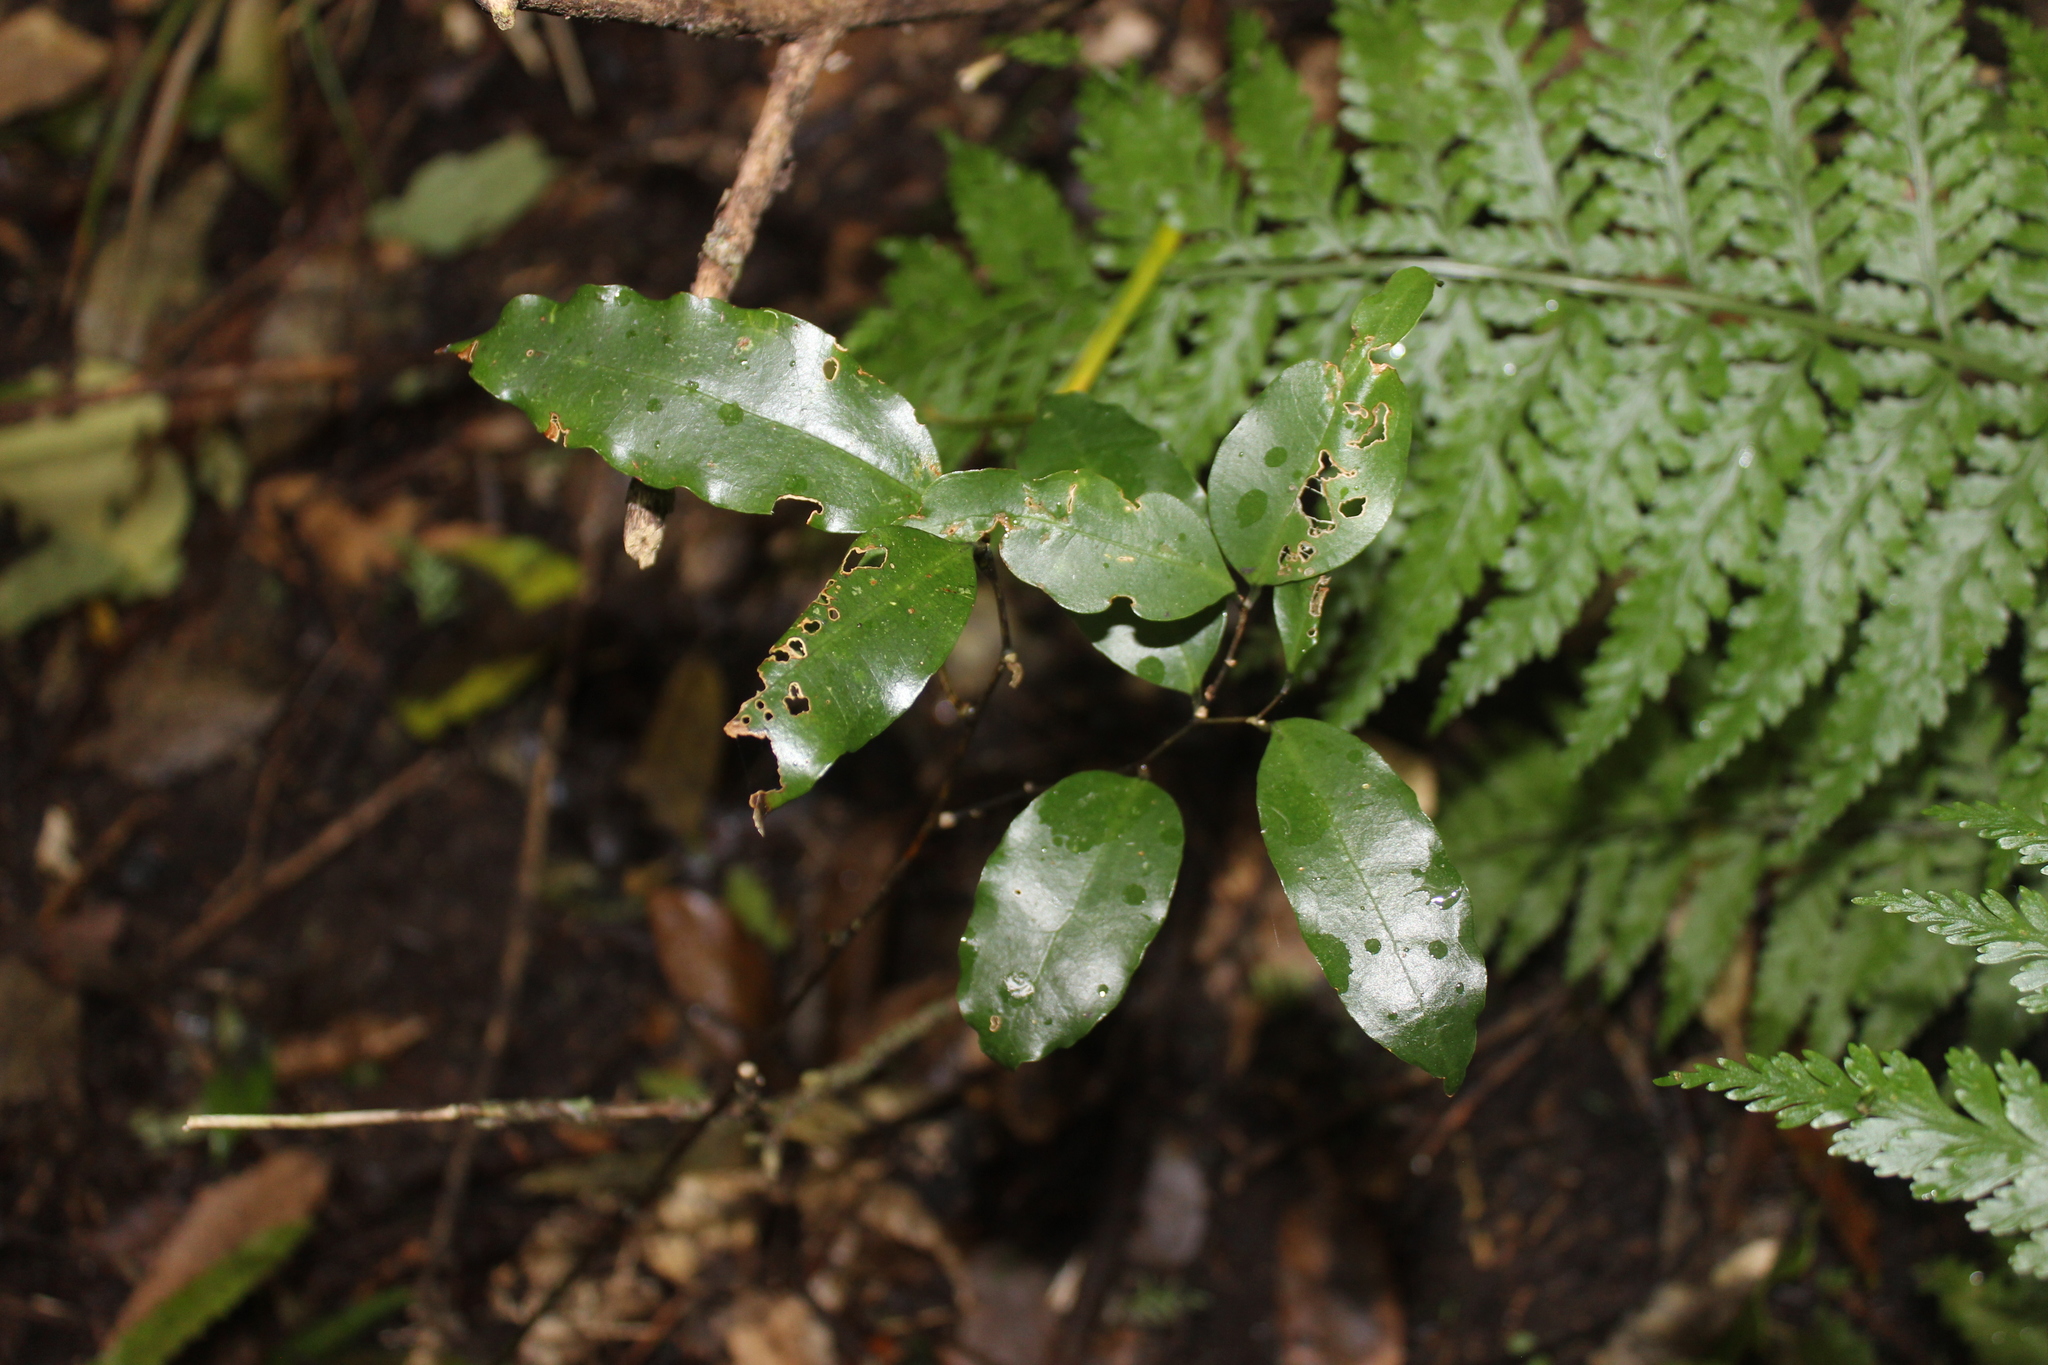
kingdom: Plantae
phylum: Tracheophyta
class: Magnoliopsida
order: Malpighiales
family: Passifloraceae
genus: Passiflora
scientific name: Passiflora tetrandra
